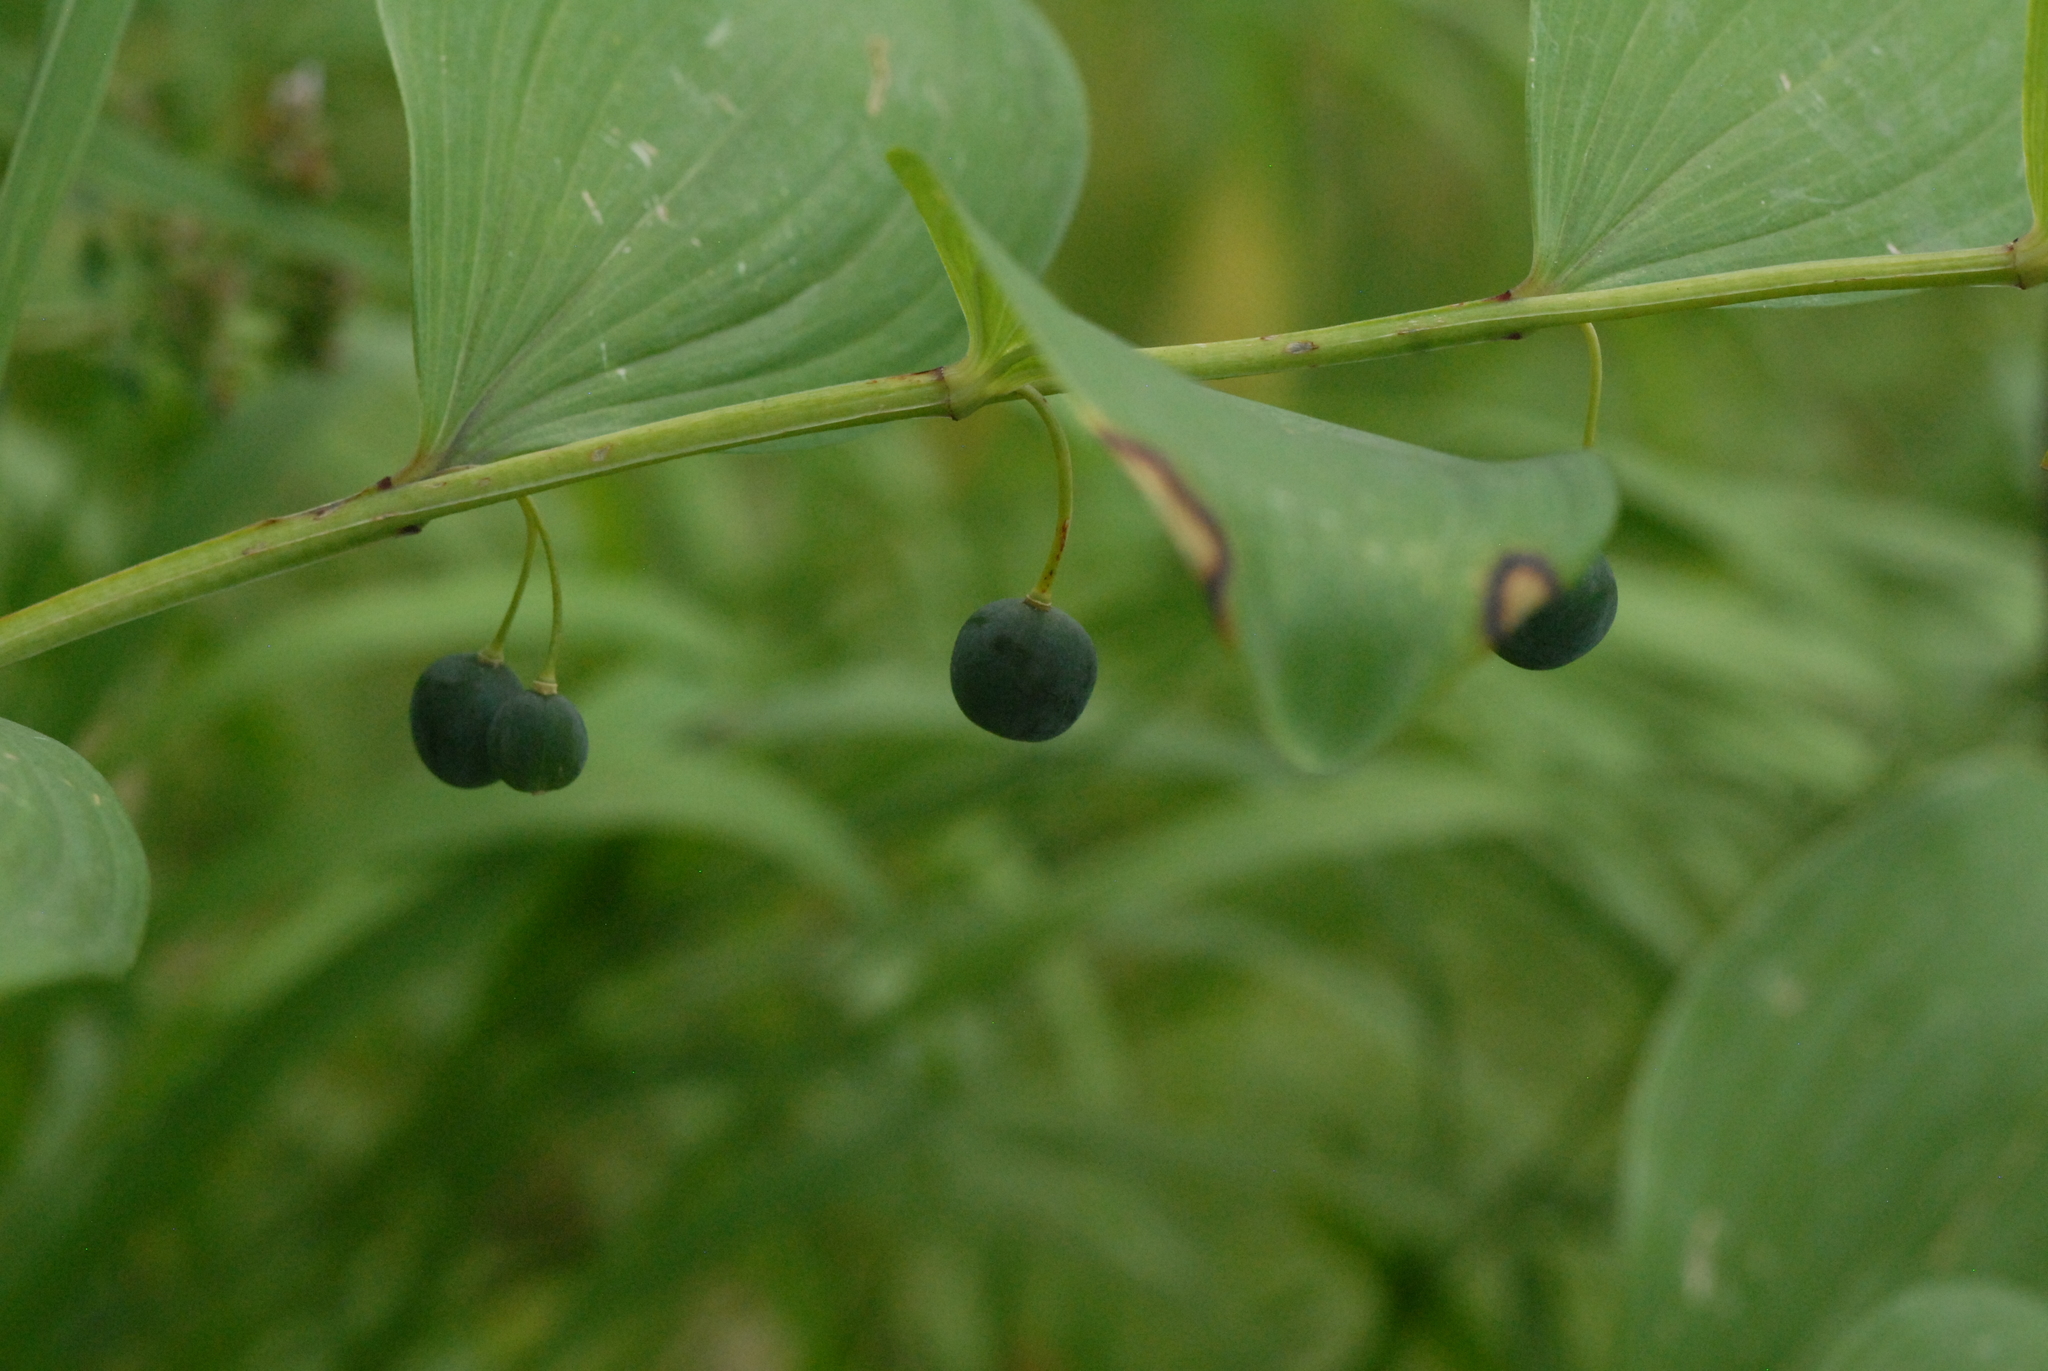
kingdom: Plantae
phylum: Tracheophyta
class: Liliopsida
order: Asparagales
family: Asparagaceae
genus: Polygonatum
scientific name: Polygonatum odoratum
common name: Angular solomon's-seal
